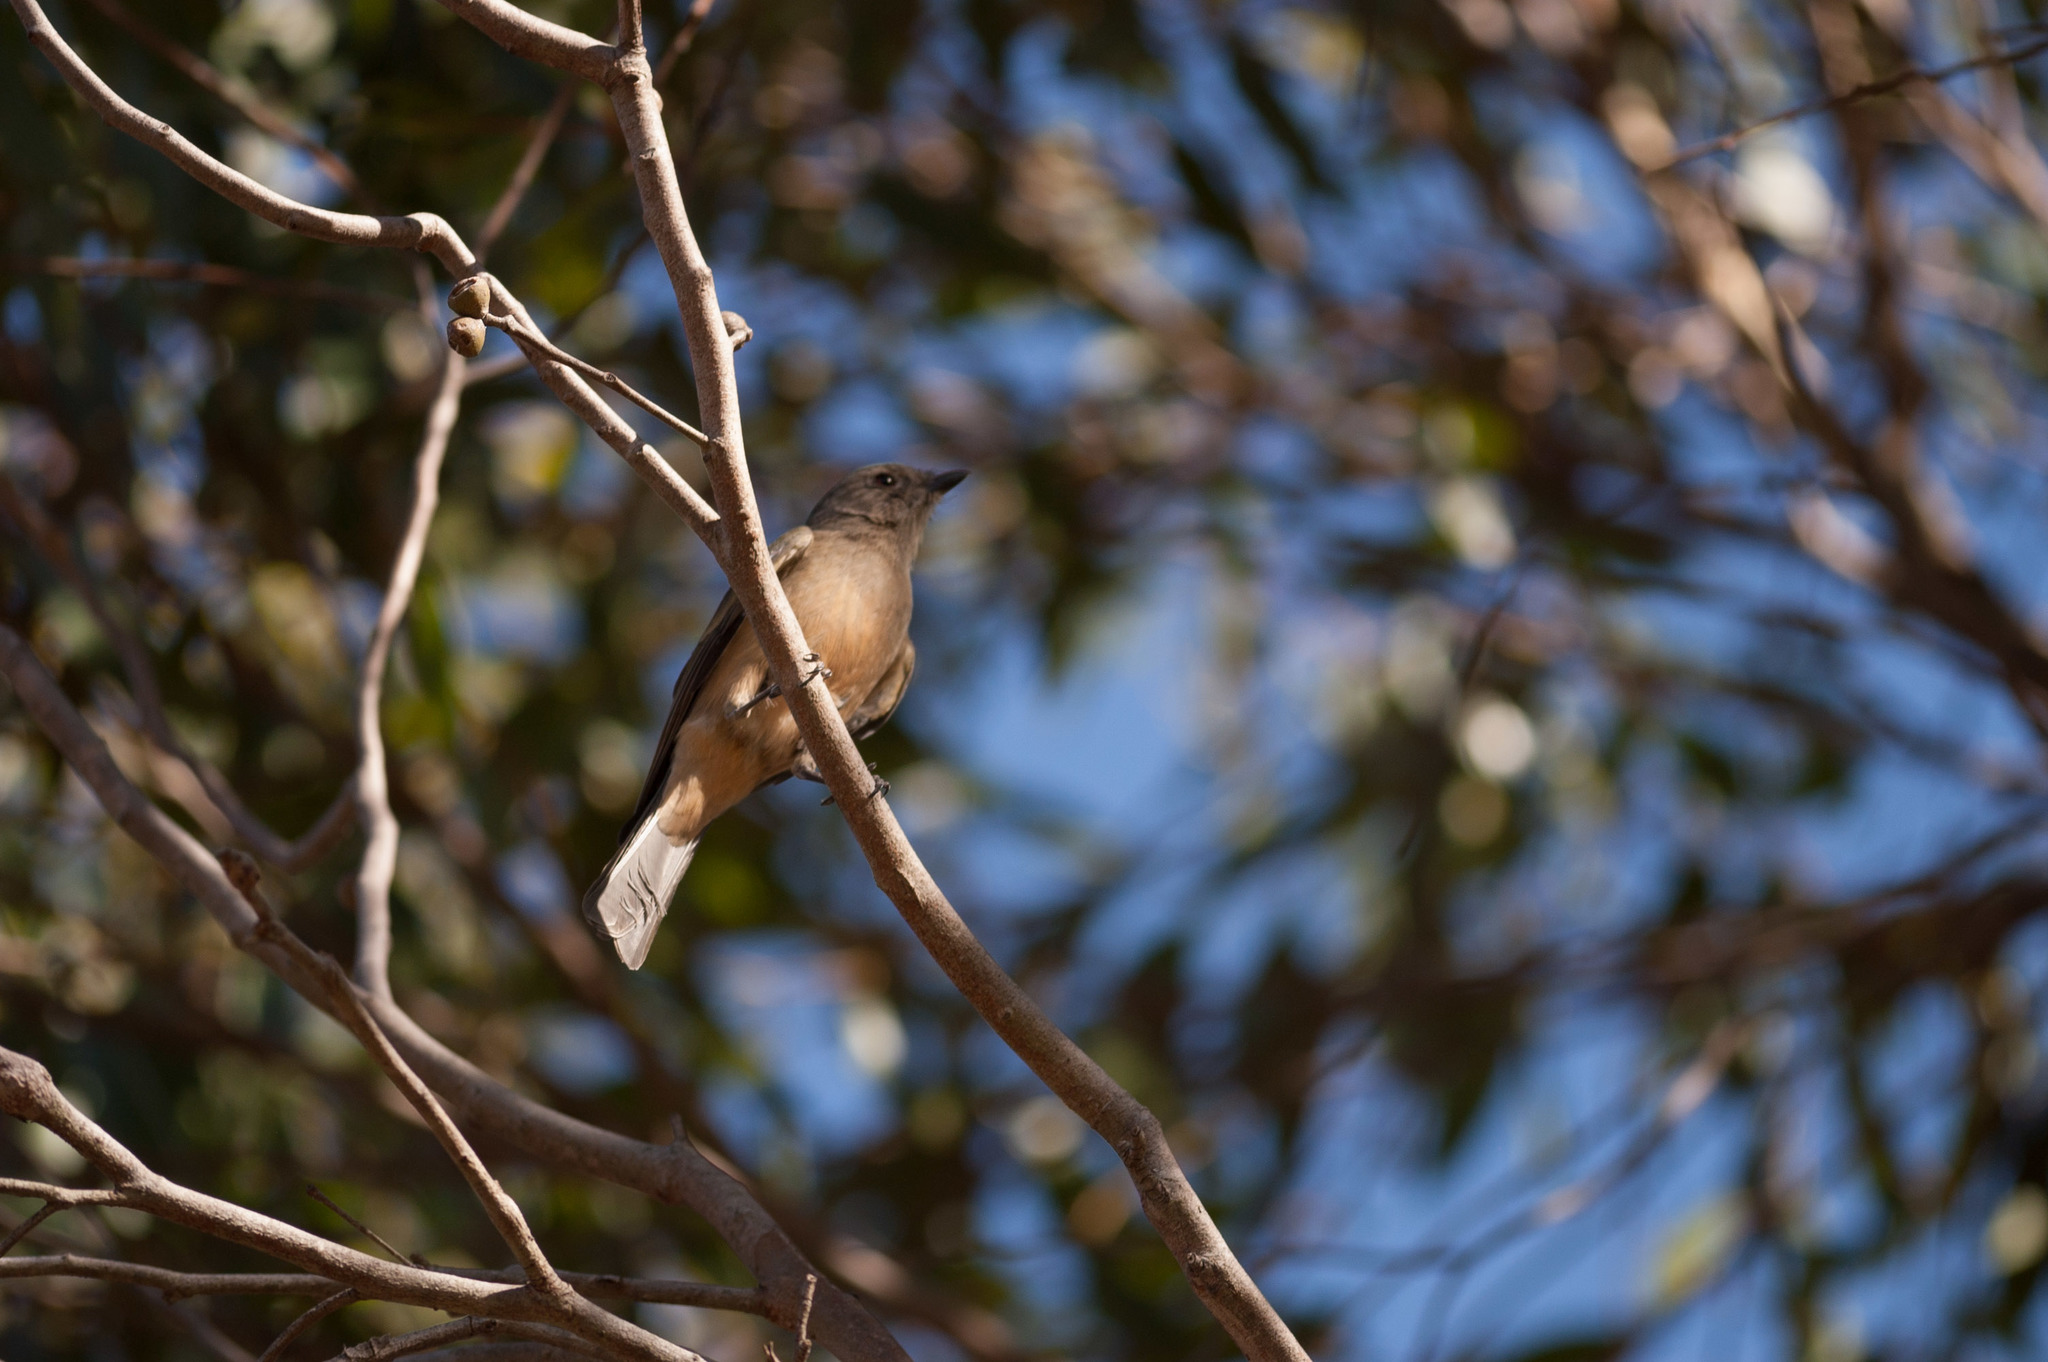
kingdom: Animalia
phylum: Chordata
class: Aves
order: Passeriformes
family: Pachycephalidae
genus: Pachycephala
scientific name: Pachycephala fuliginosa
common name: Western whistler
